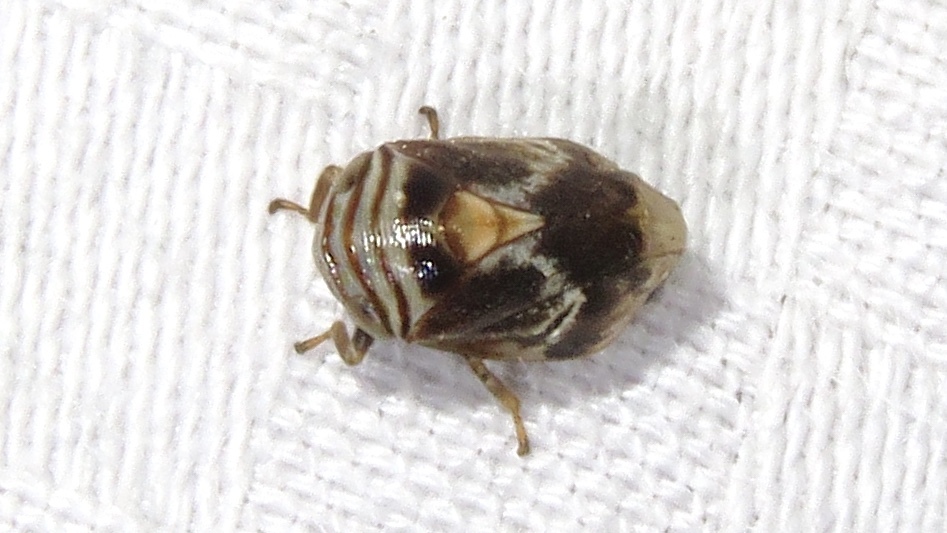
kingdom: Animalia
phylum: Arthropoda
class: Insecta
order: Hemiptera
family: Clastopteridae
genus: Clastoptera
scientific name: Clastoptera obtusa
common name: Alder spittlebug
